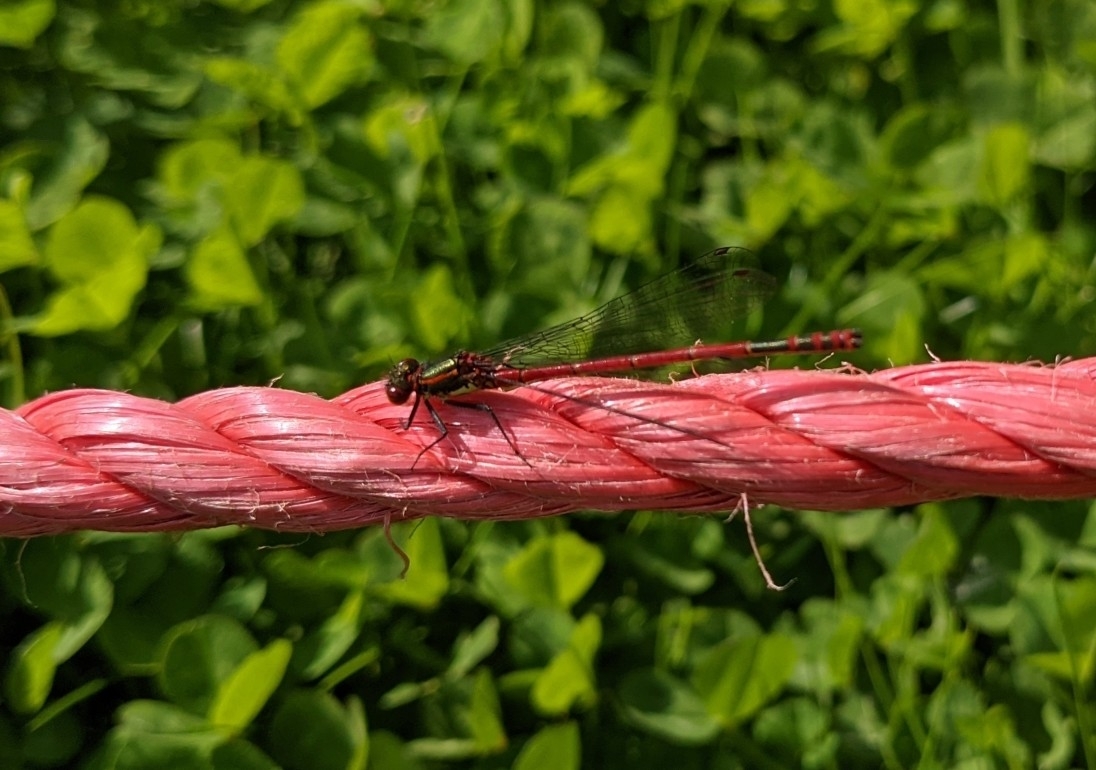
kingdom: Animalia
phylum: Arthropoda
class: Insecta
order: Odonata
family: Coenagrionidae
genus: Pyrrhosoma
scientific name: Pyrrhosoma nymphula
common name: Large red damsel
